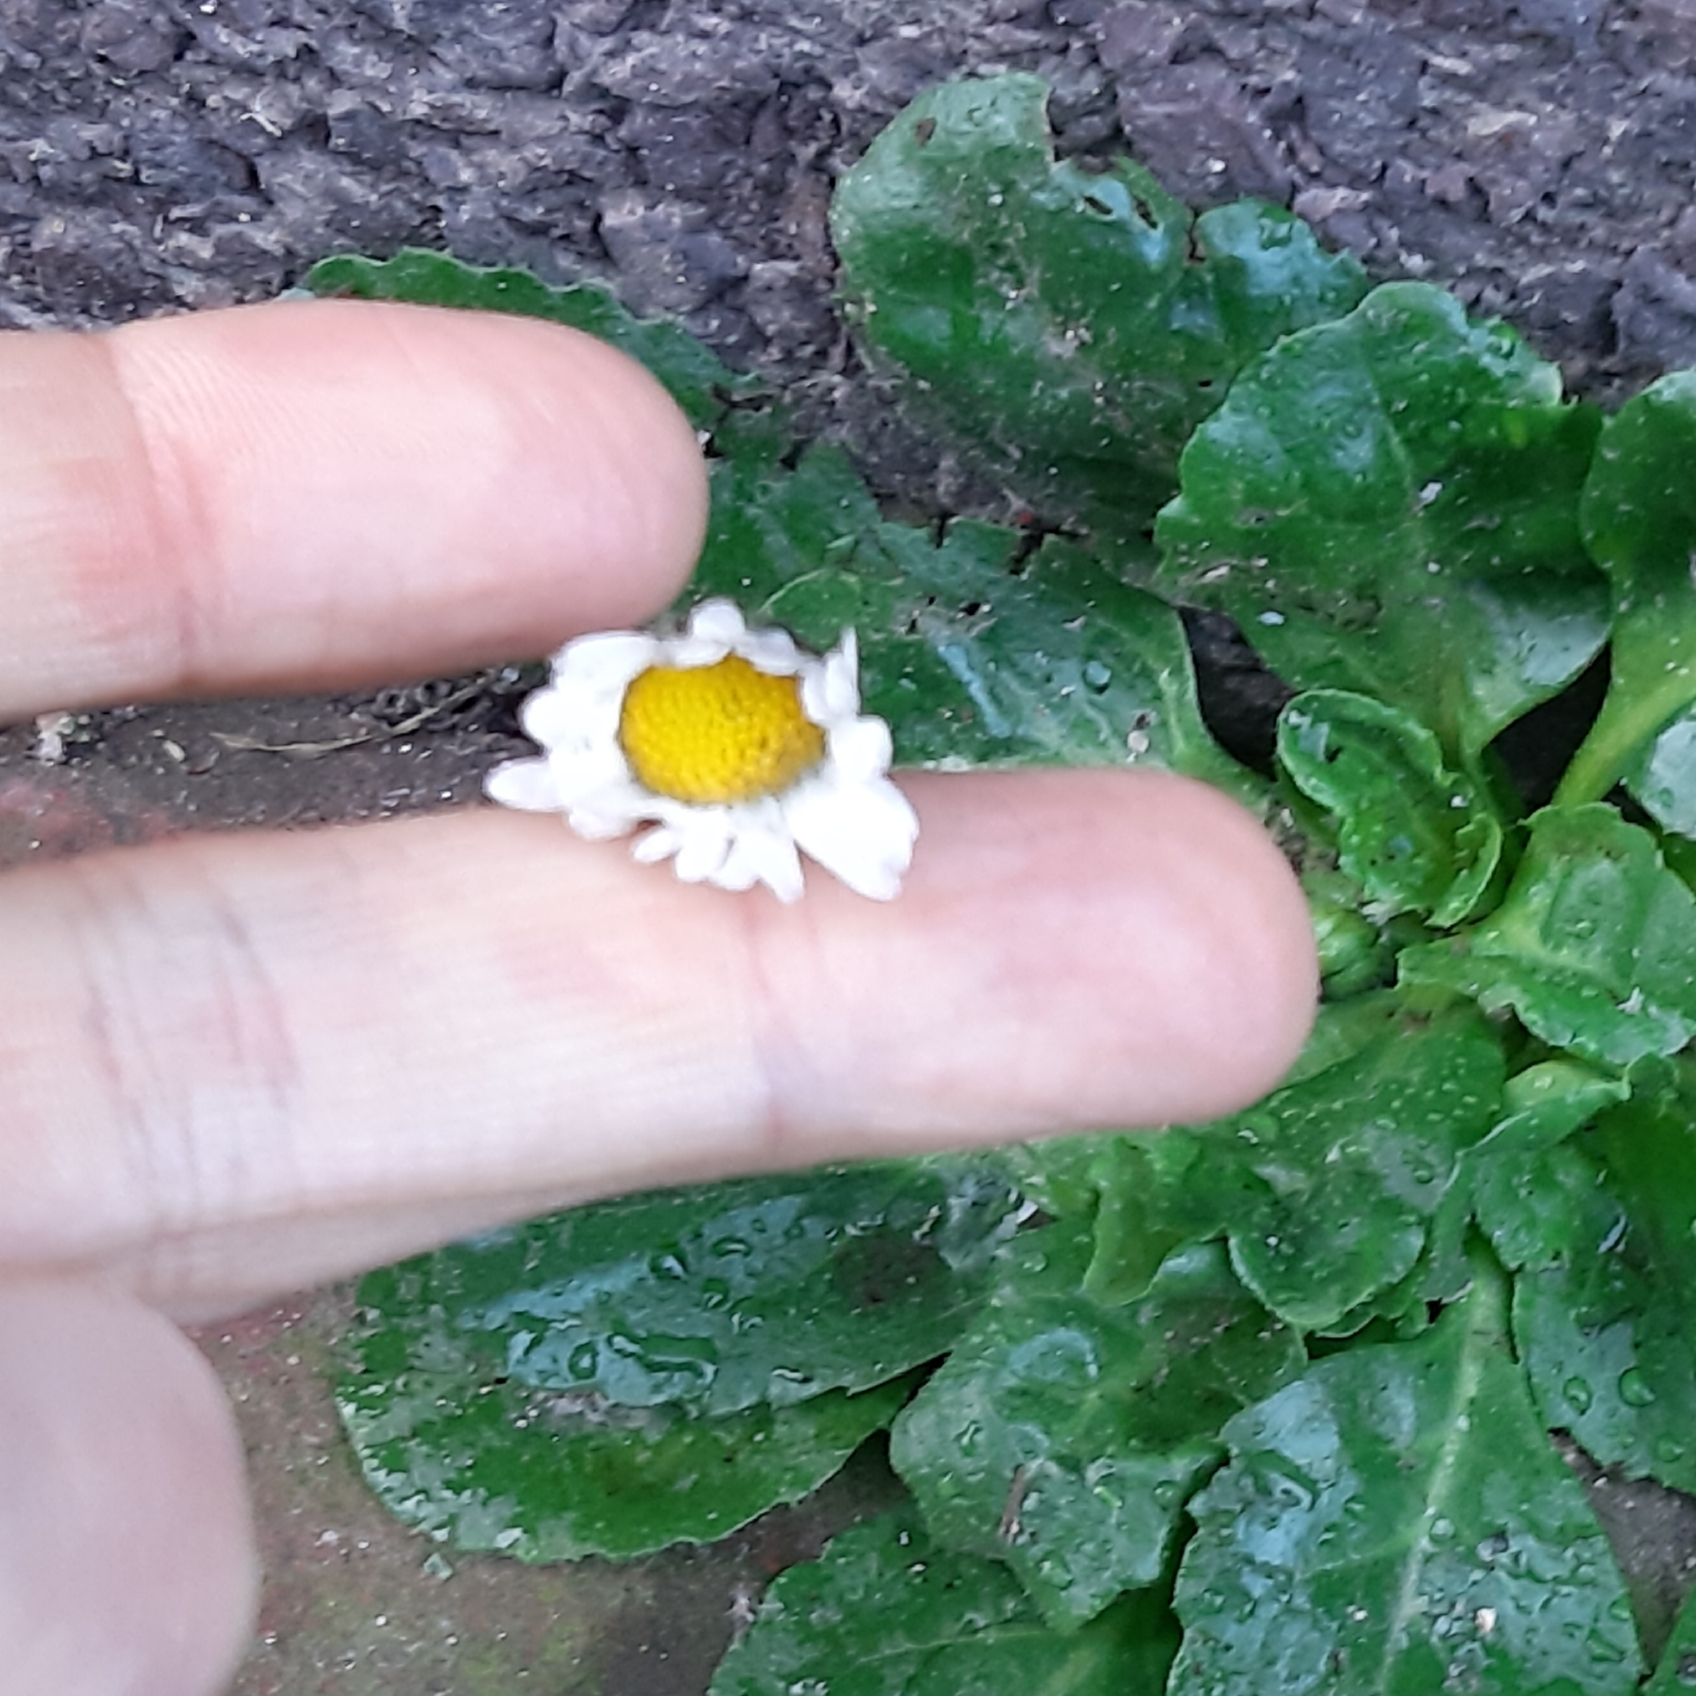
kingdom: Plantae
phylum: Tracheophyta
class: Magnoliopsida
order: Asterales
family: Asteraceae
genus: Bellis
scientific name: Bellis perennis
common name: Lawndaisy
